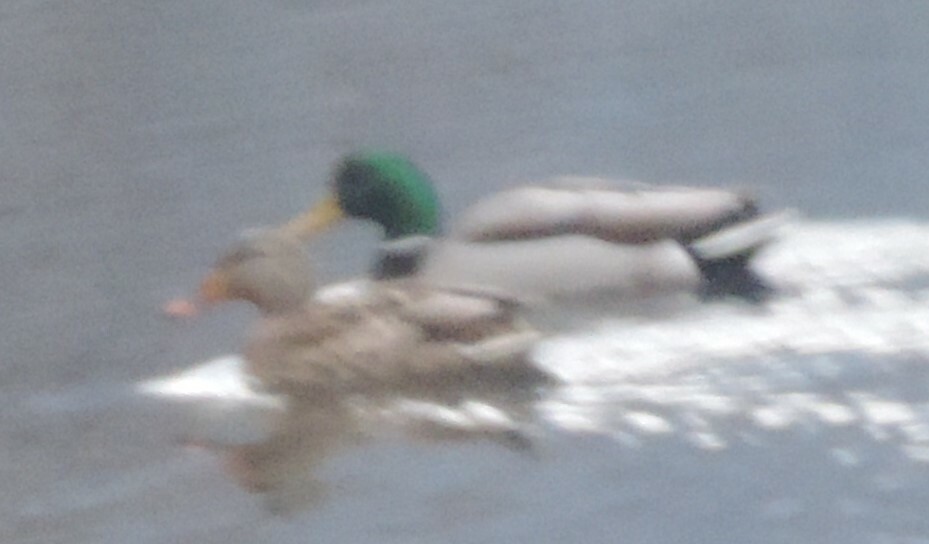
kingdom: Animalia
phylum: Chordata
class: Aves
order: Anseriformes
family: Anatidae
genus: Anas
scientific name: Anas platyrhynchos
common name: Mallard
